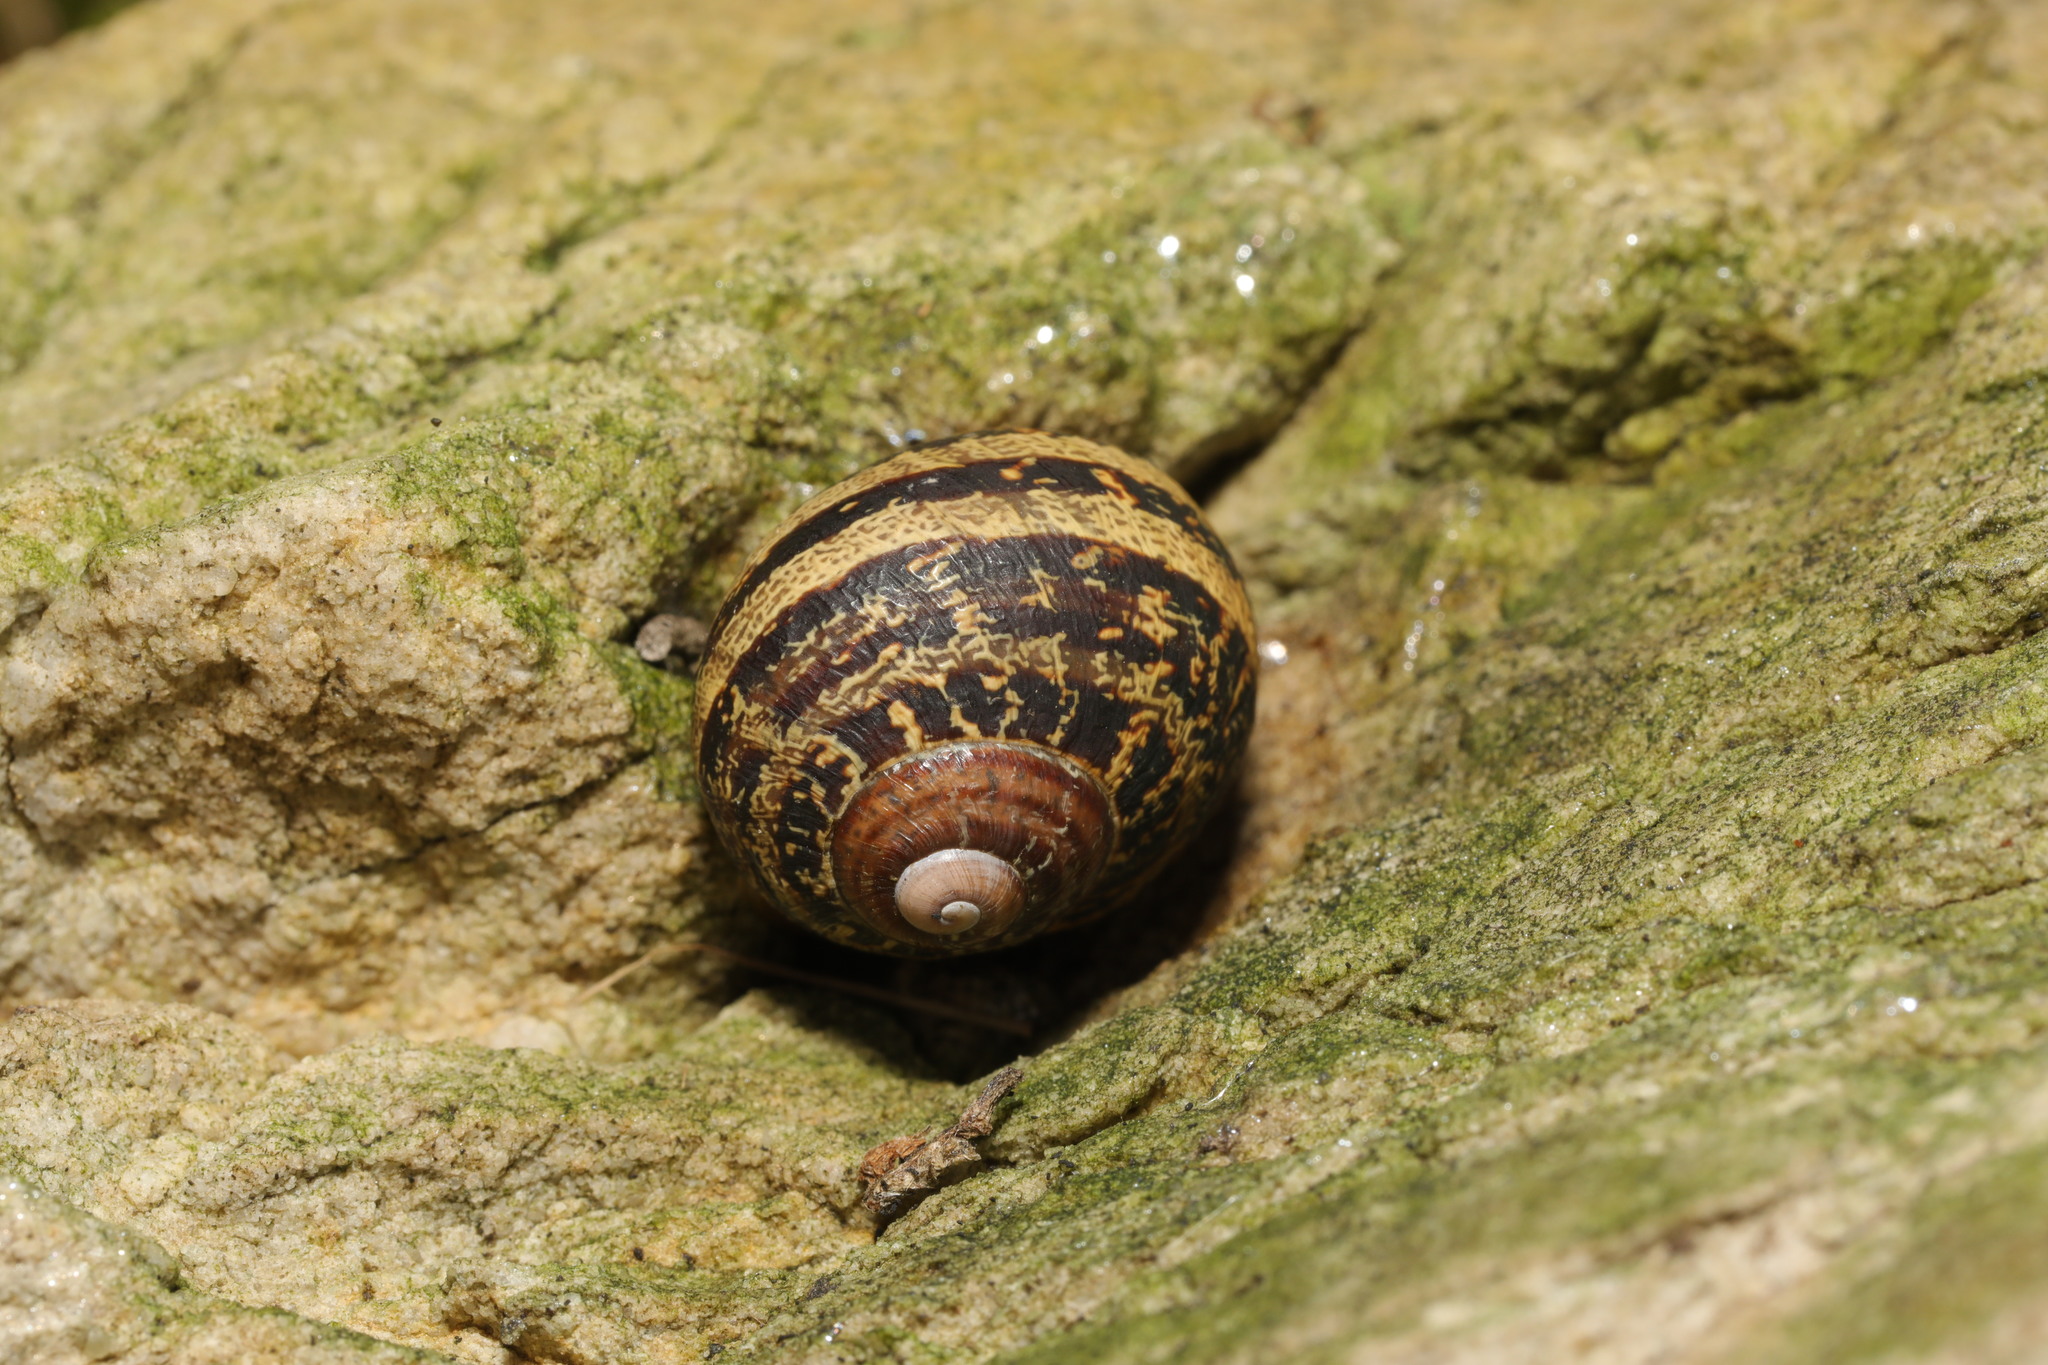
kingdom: Animalia
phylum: Mollusca
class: Gastropoda
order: Stylommatophora
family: Helicidae
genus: Cornu
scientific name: Cornu aspersum
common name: Brown garden snail
